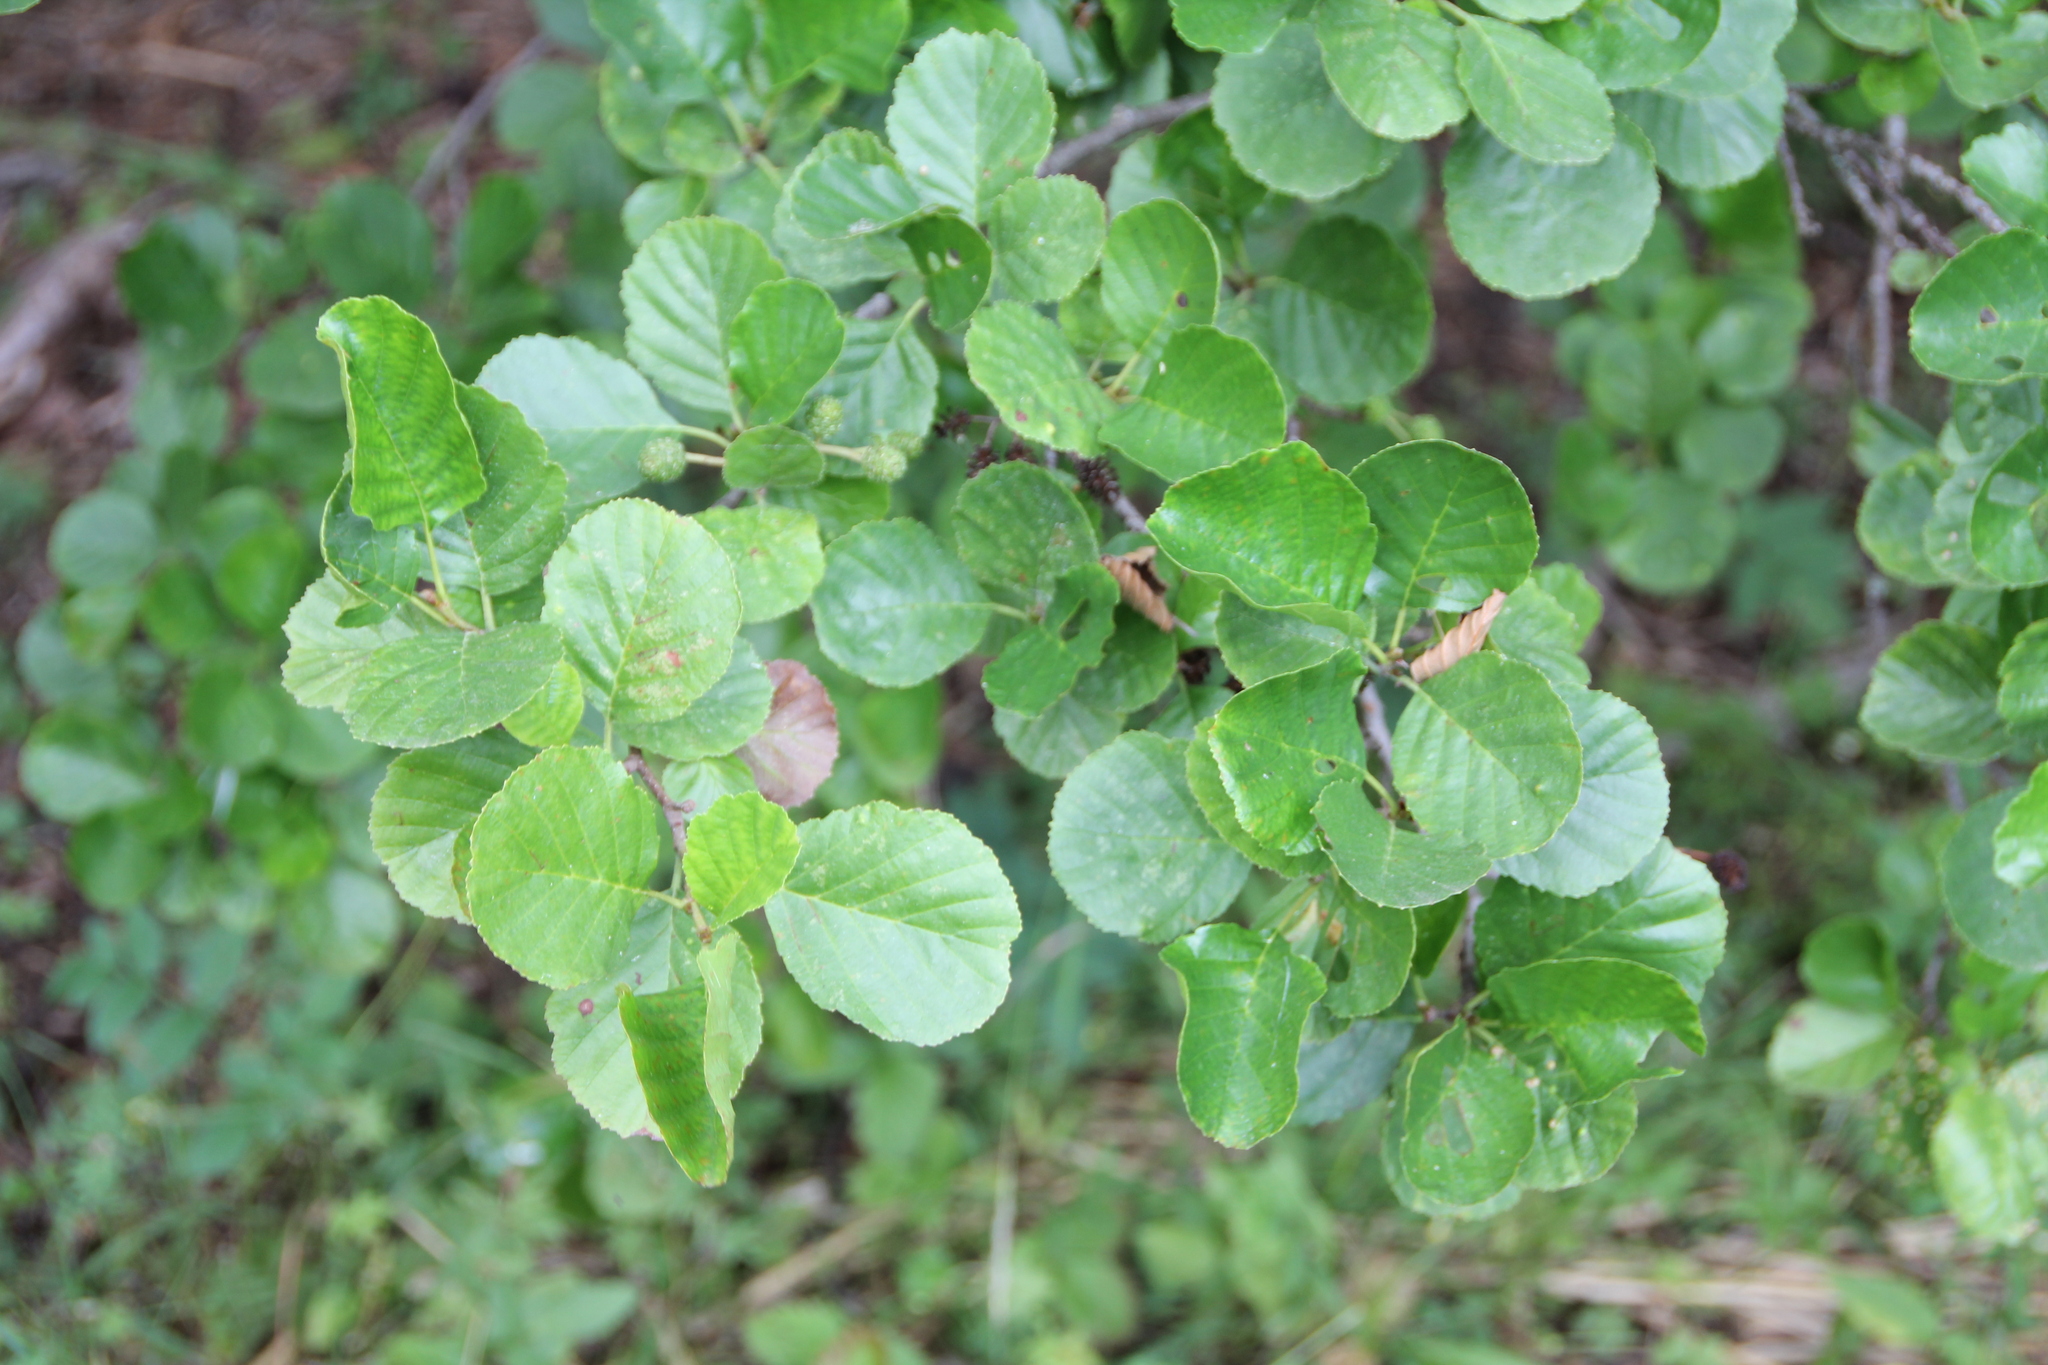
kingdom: Plantae
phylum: Tracheophyta
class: Magnoliopsida
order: Fagales
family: Betulaceae
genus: Alnus
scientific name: Alnus glutinosa
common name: Black alder
